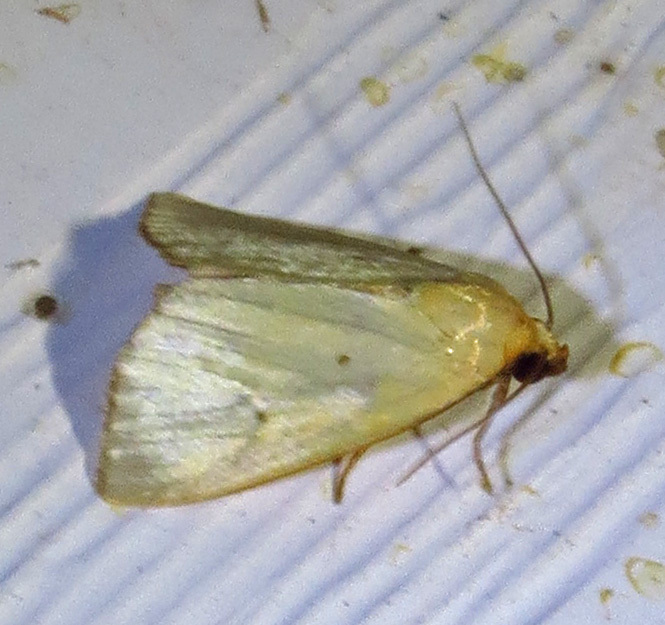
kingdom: Animalia
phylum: Arthropoda
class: Insecta
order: Lepidoptera
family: Noctuidae
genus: Marimatha
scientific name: Marimatha nigrofimbria
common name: Black-bordered lemon moth
